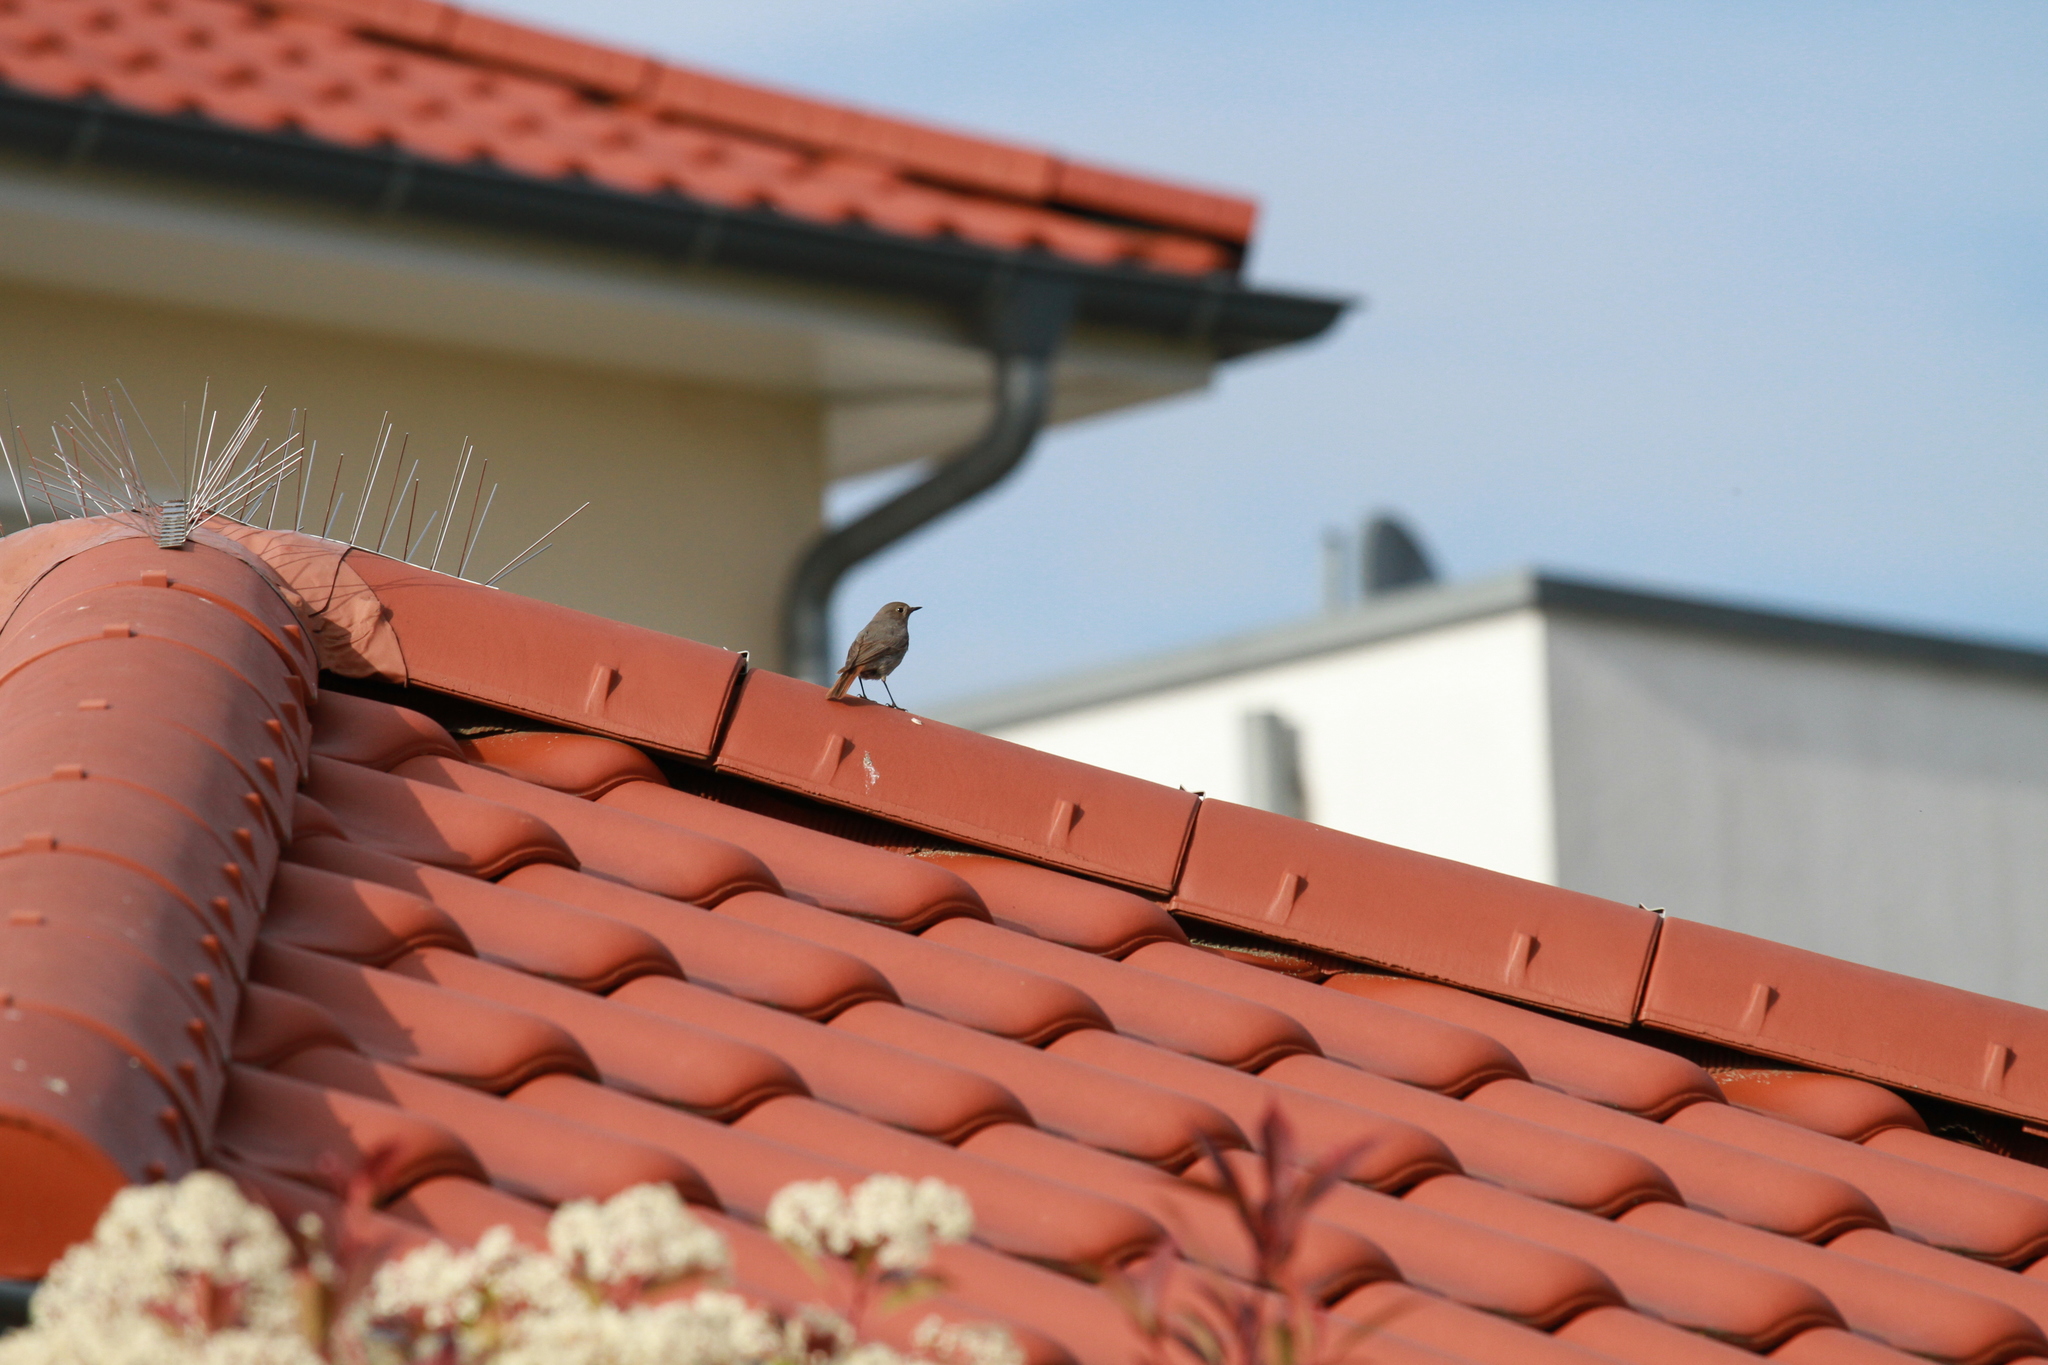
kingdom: Animalia
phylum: Chordata
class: Aves
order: Passeriformes
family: Muscicapidae
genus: Phoenicurus
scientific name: Phoenicurus ochruros
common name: Black redstart
